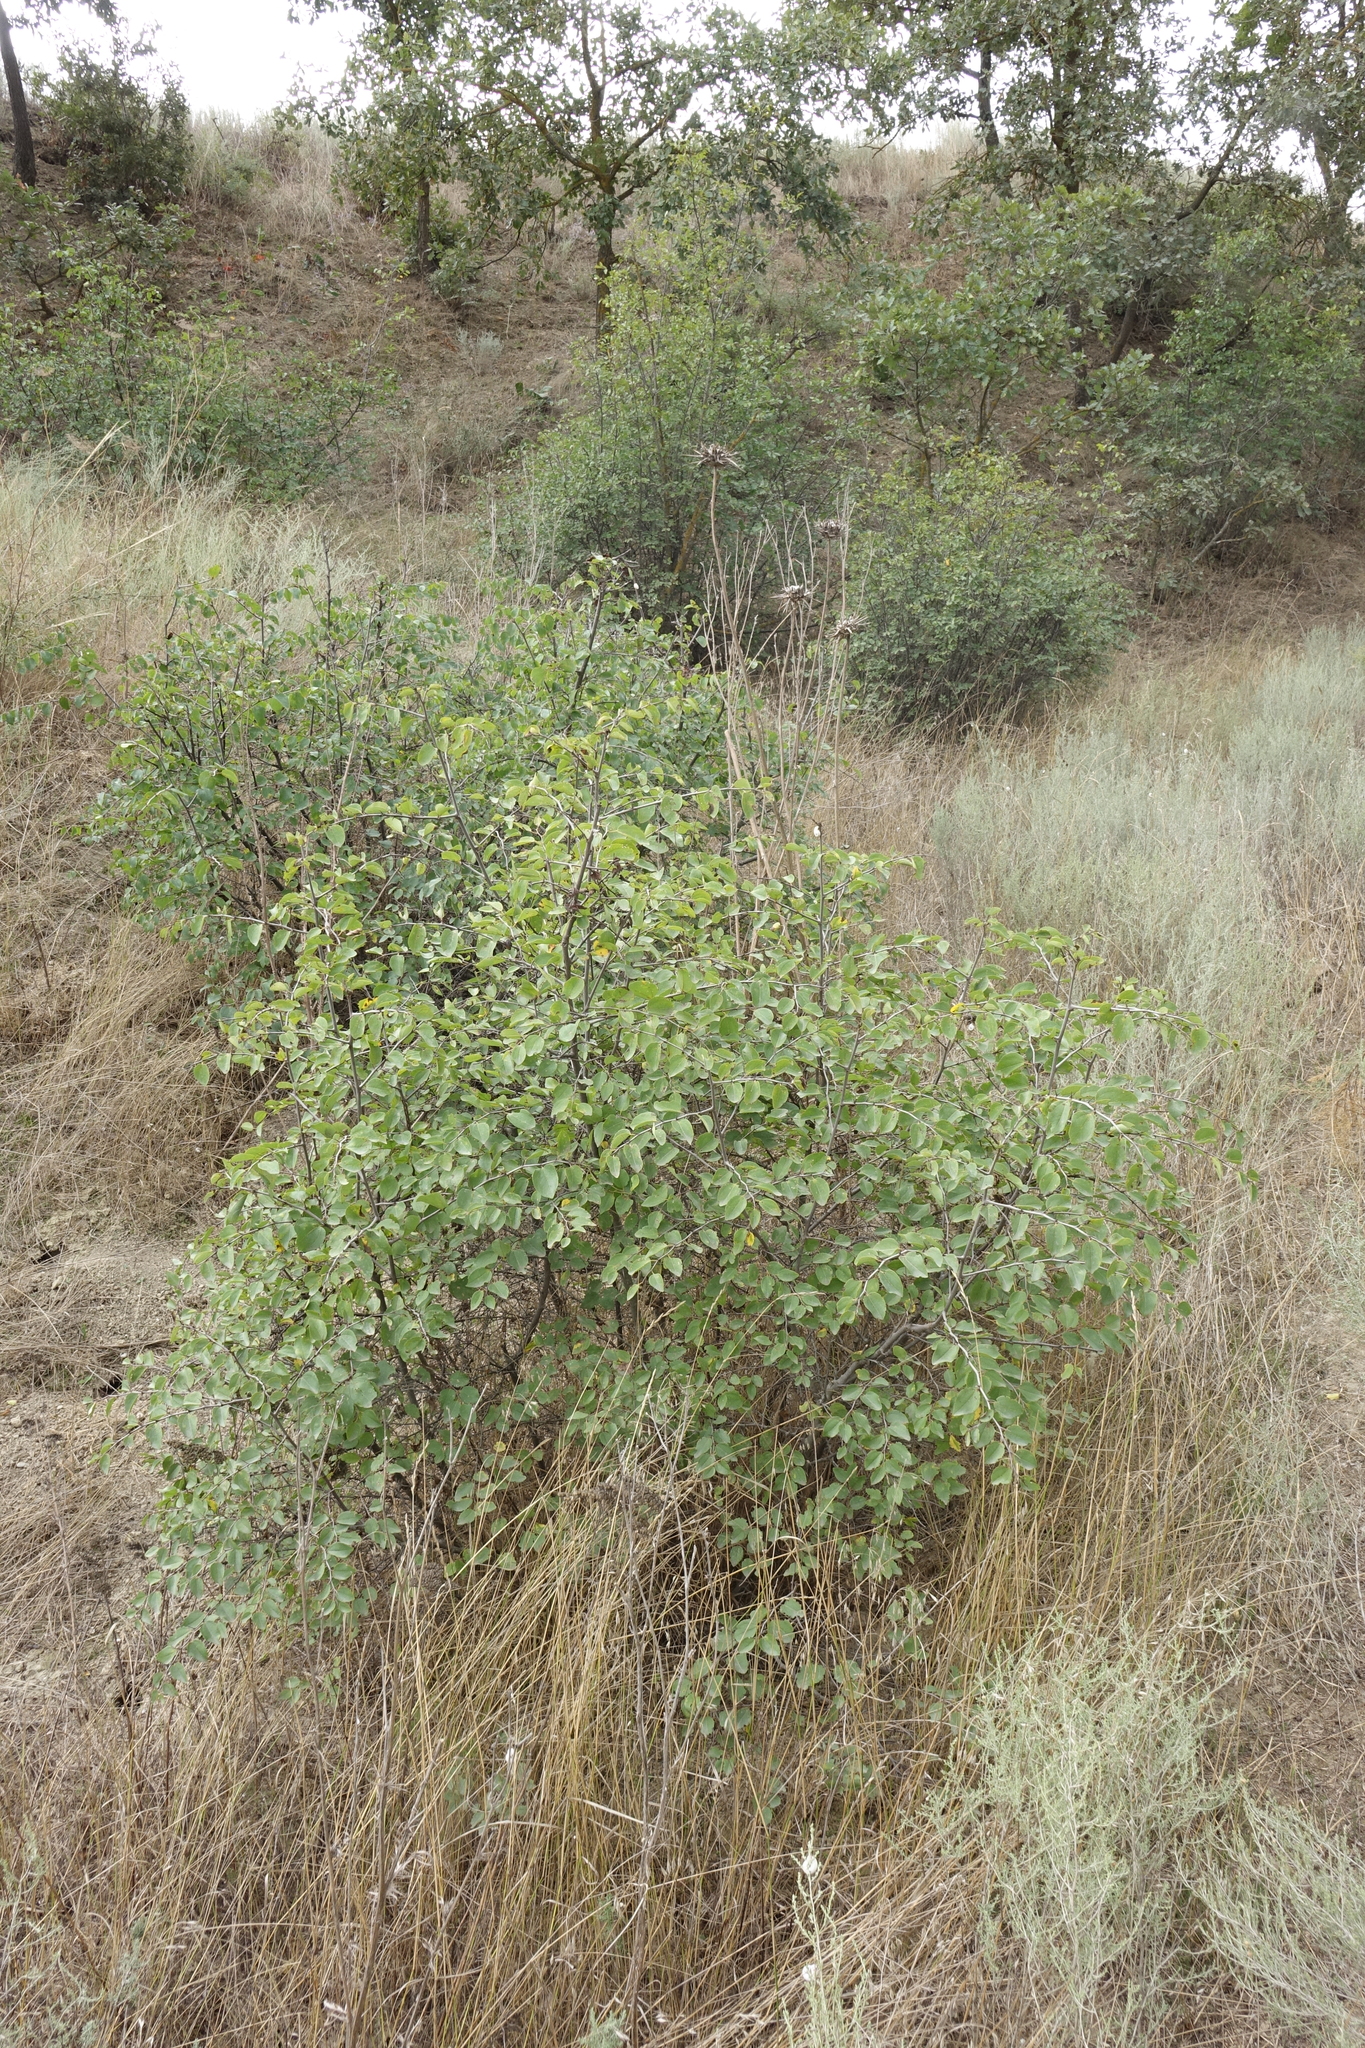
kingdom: Plantae
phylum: Tracheophyta
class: Magnoliopsida
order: Rosales
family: Rhamnaceae
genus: Paliurus
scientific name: Paliurus spina-christi
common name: Jeruselem thorn
